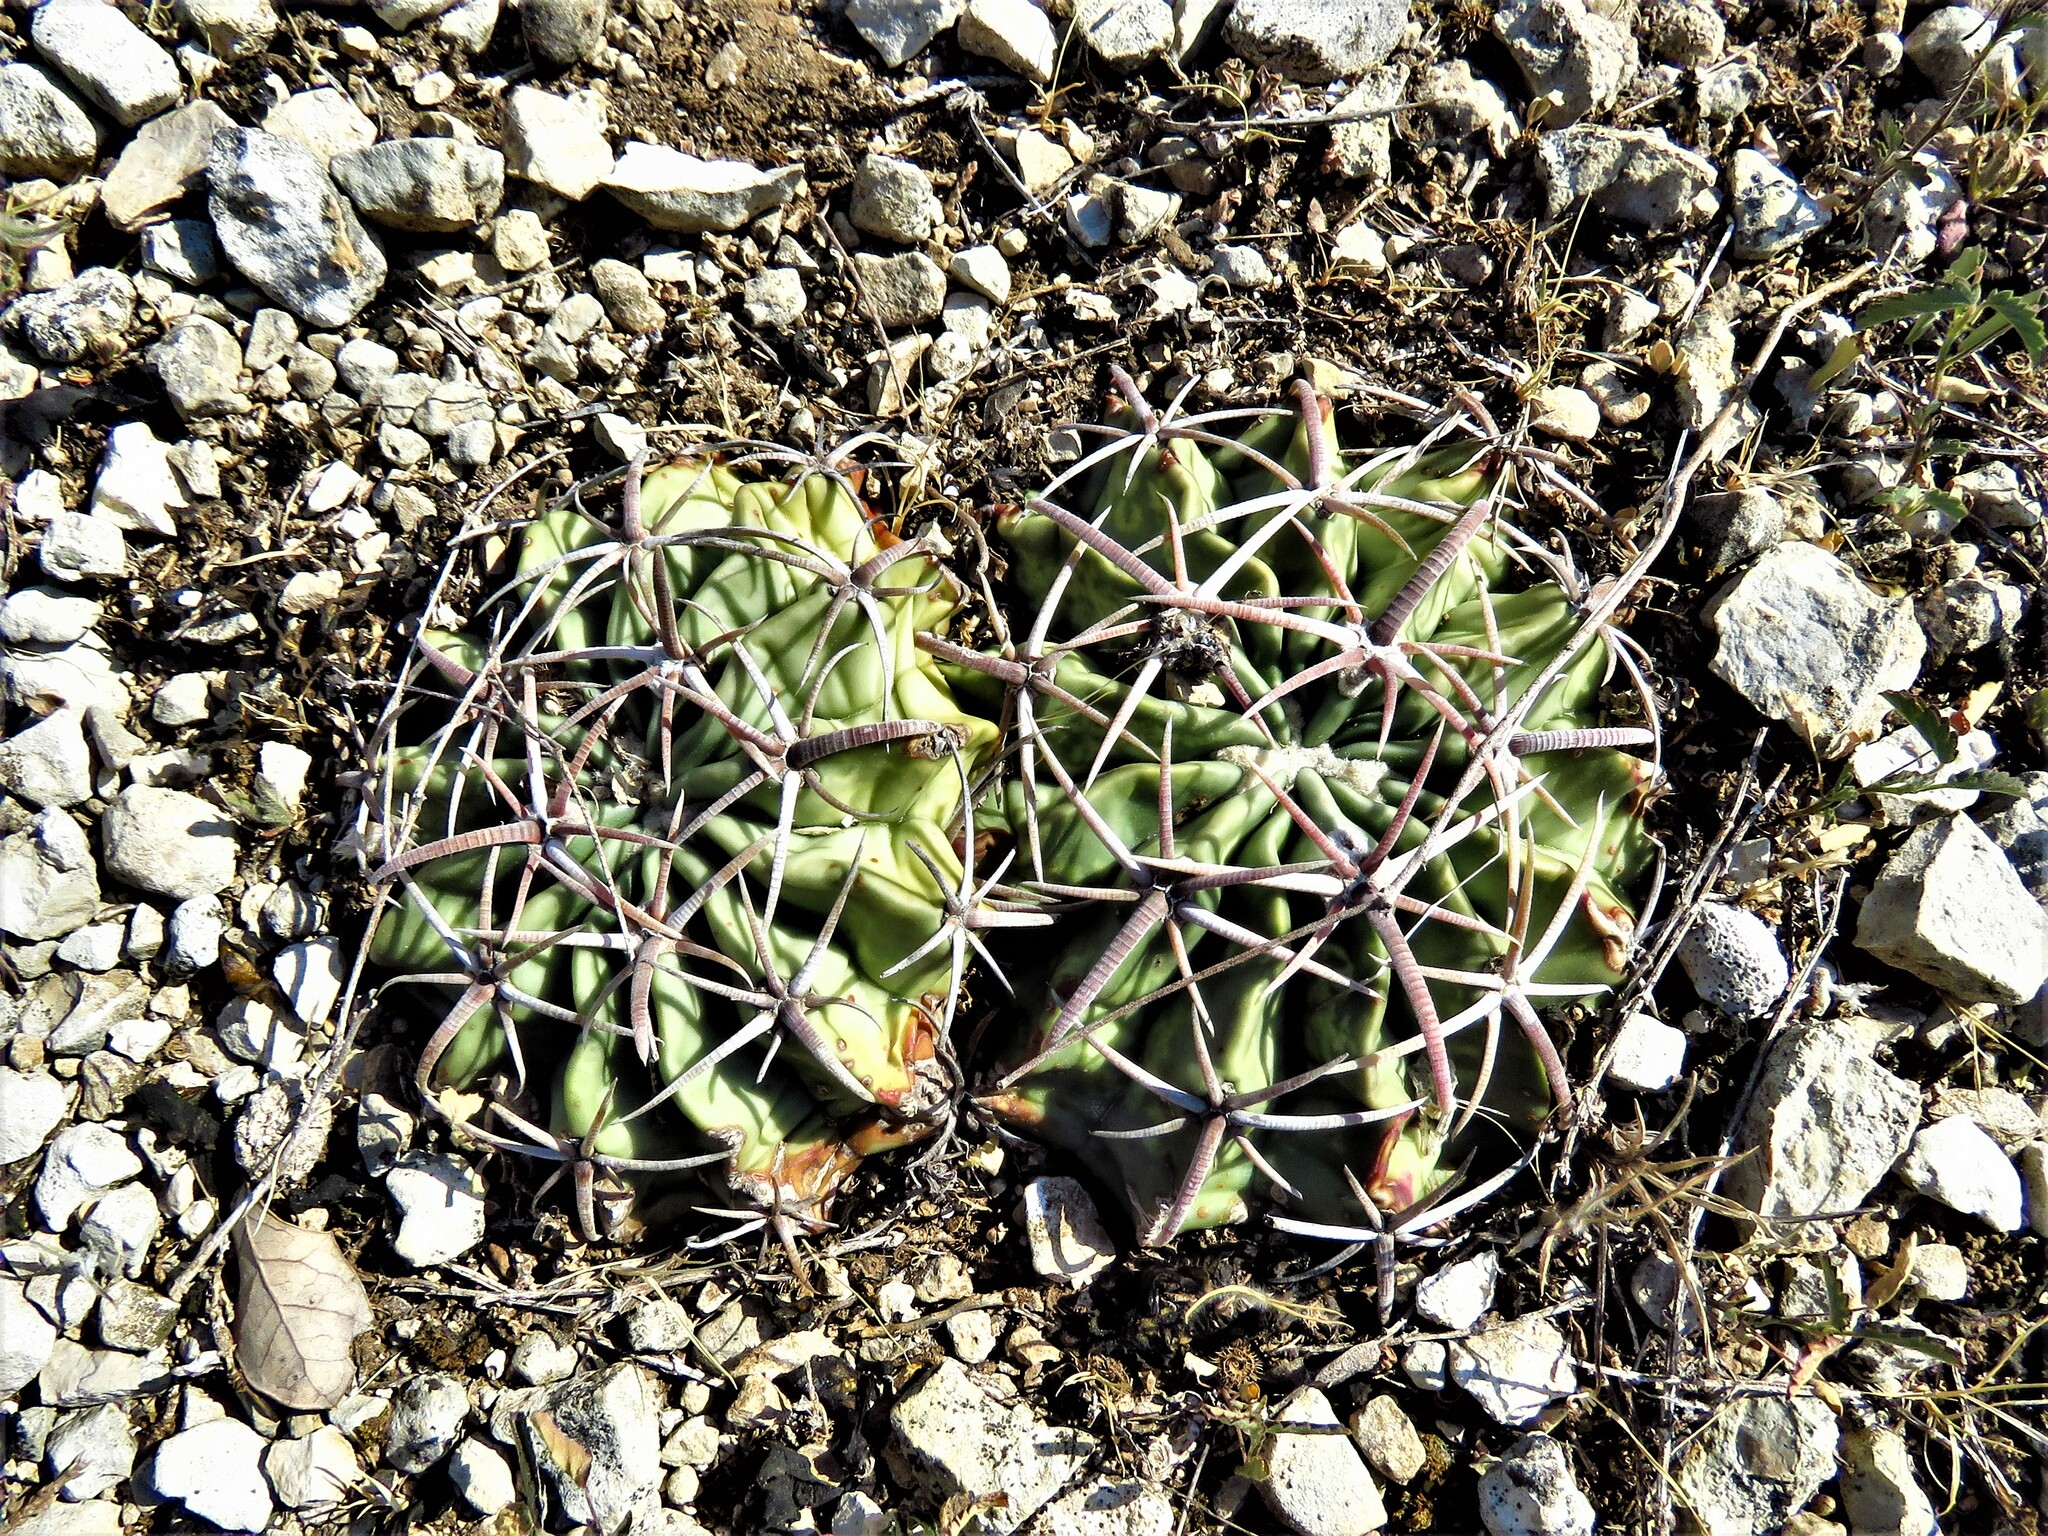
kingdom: Plantae
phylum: Tracheophyta
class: Magnoliopsida
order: Caryophyllales
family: Cactaceae
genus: Echinocactus
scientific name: Echinocactus texensis
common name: Devil's pincushion
